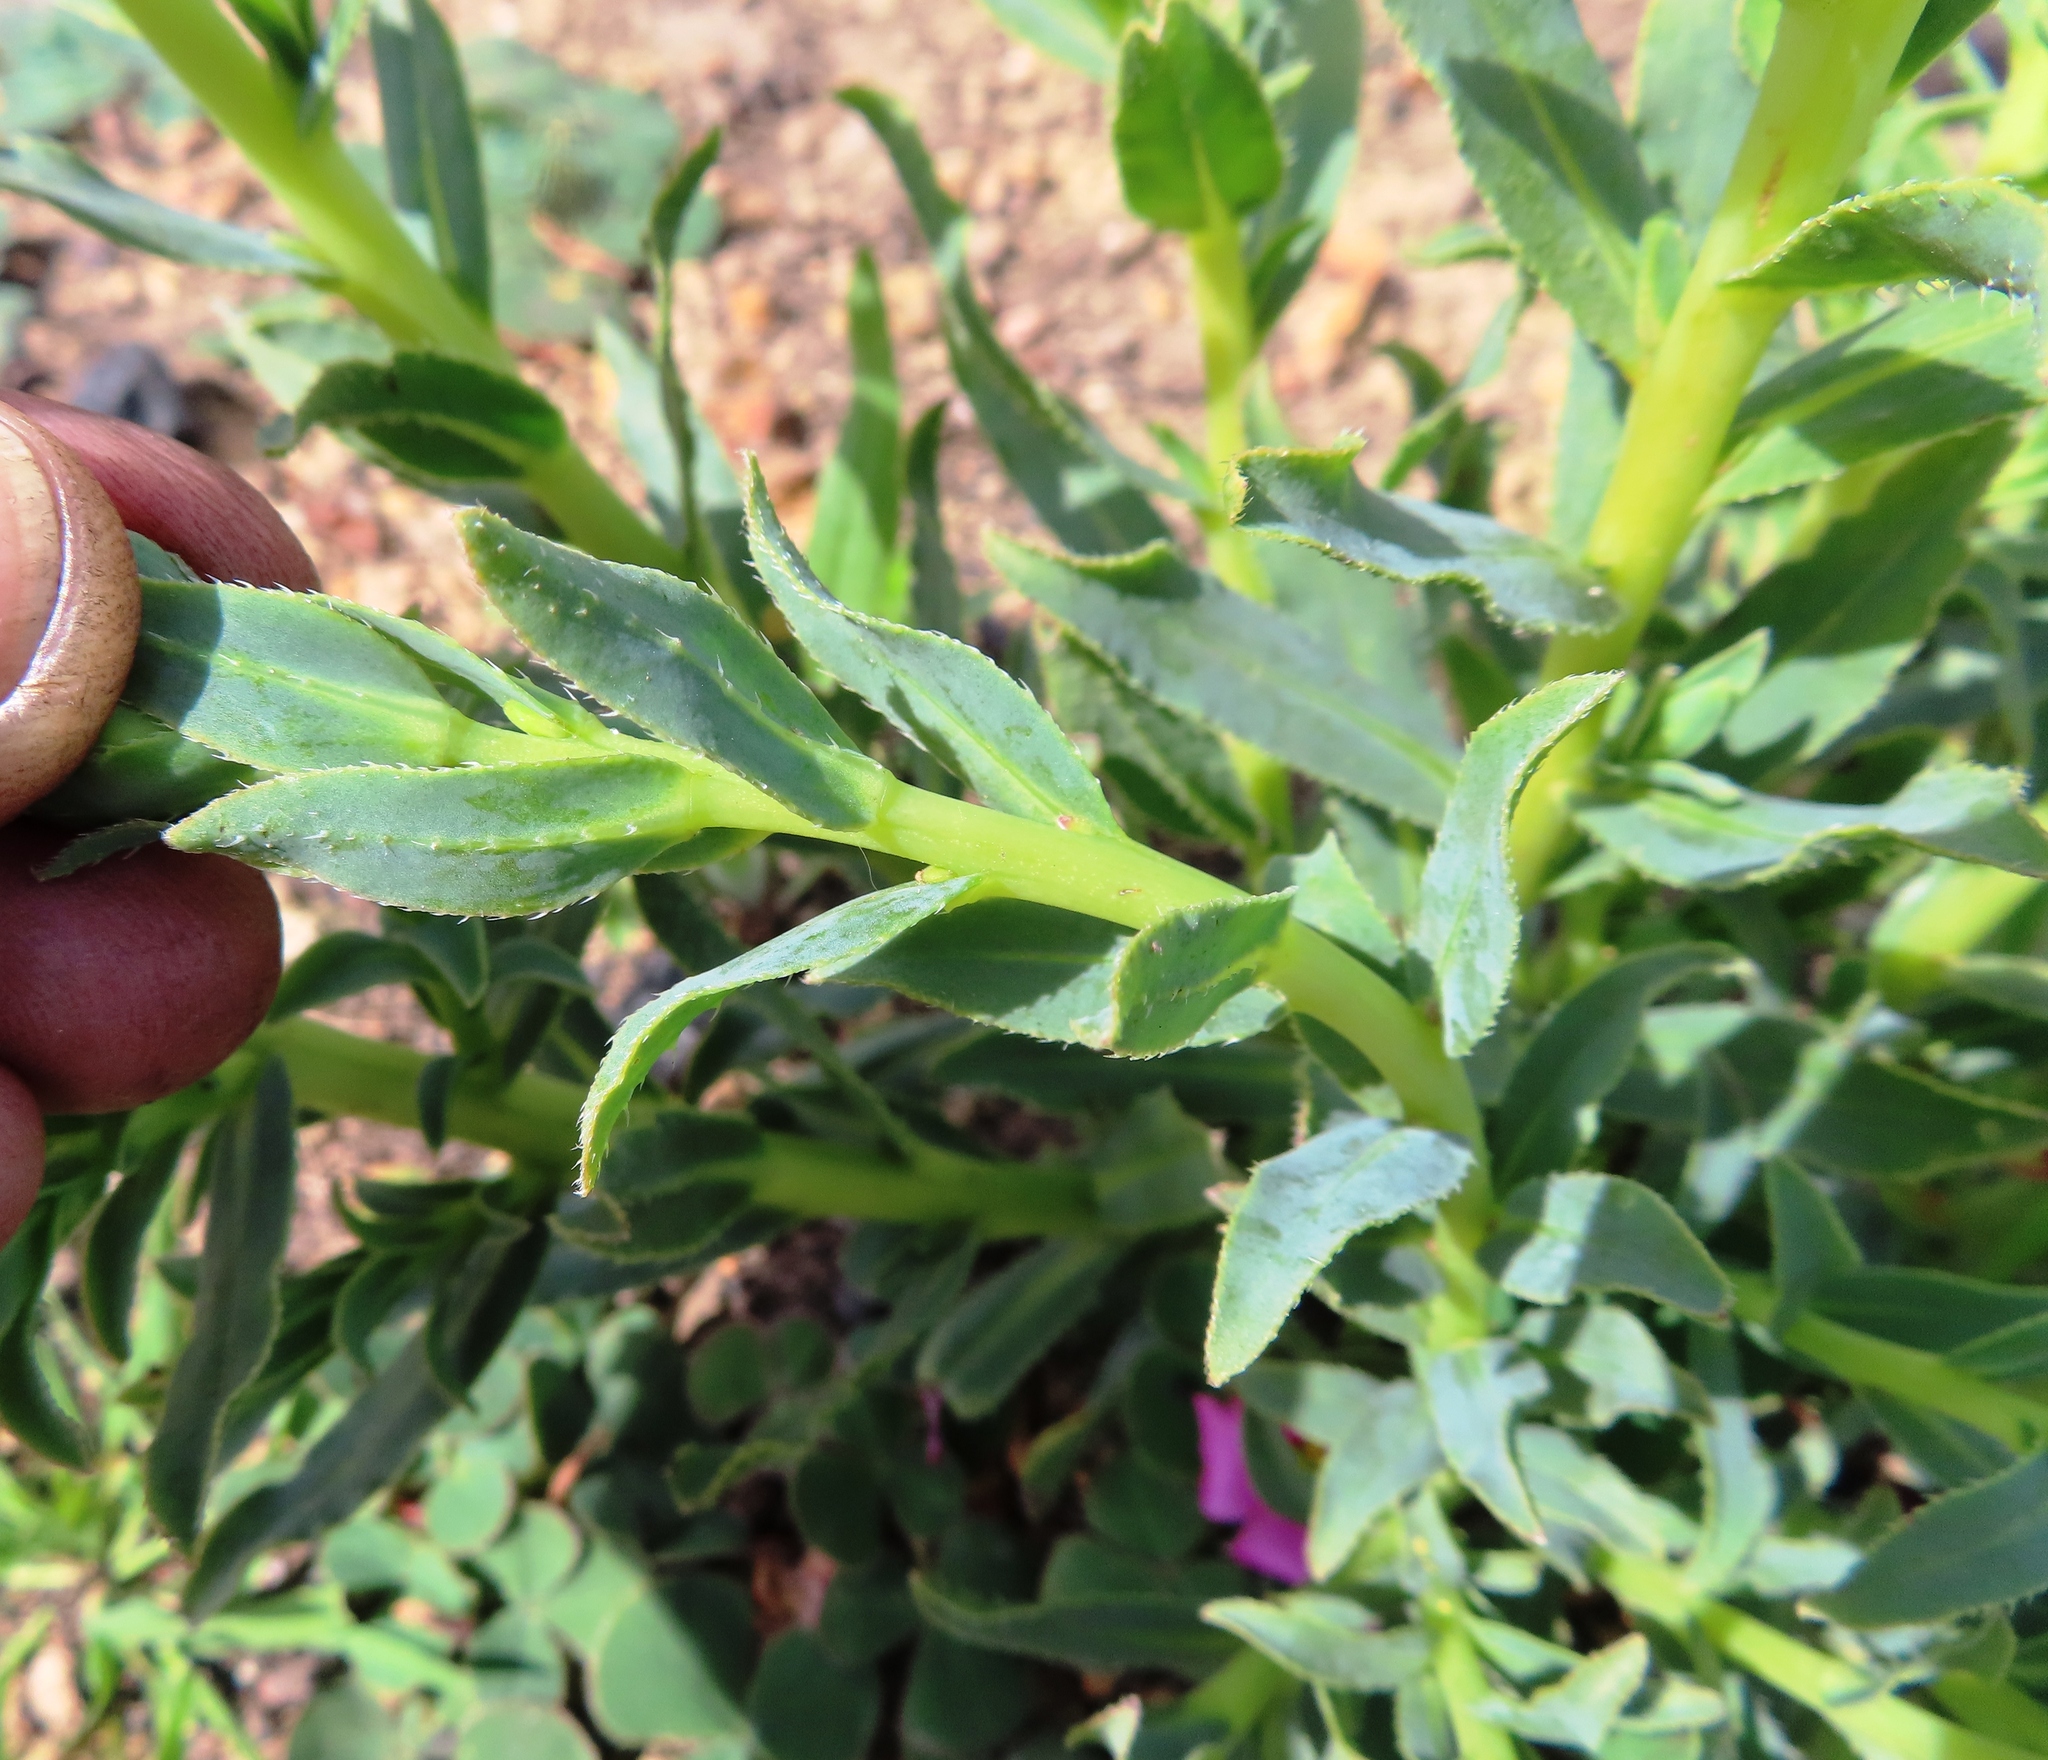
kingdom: Plantae
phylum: Tracheophyta
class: Magnoliopsida
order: Boraginales
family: Boraginaceae
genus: Lobostemon
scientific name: Lobostemon hottentoticus
